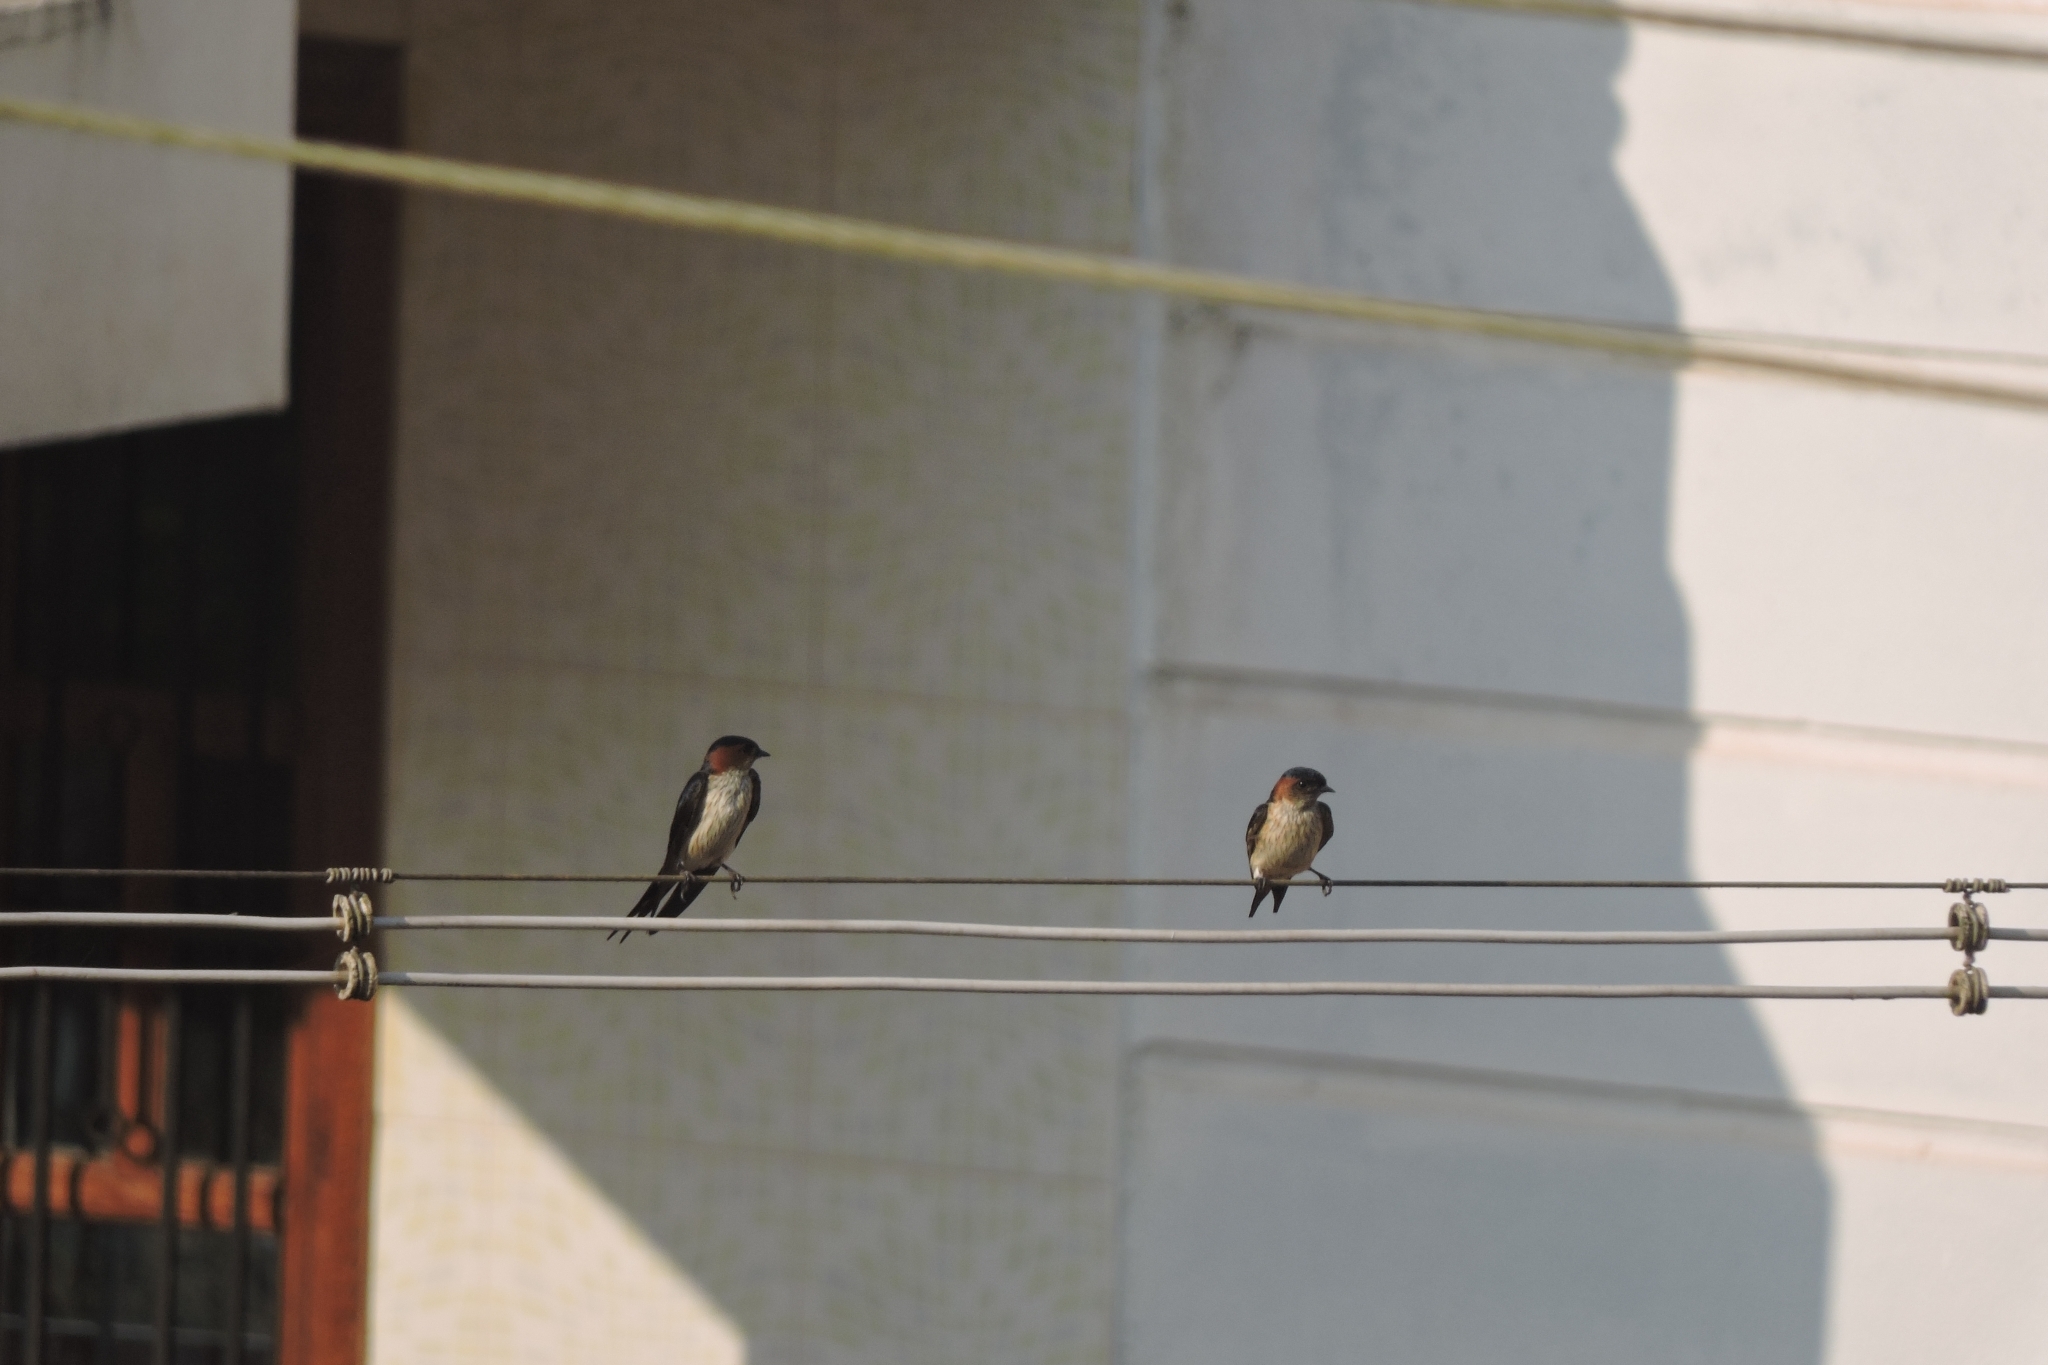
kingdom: Animalia
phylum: Chordata
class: Aves
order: Passeriformes
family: Hirundinidae
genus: Cecropis
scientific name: Cecropis daurica
